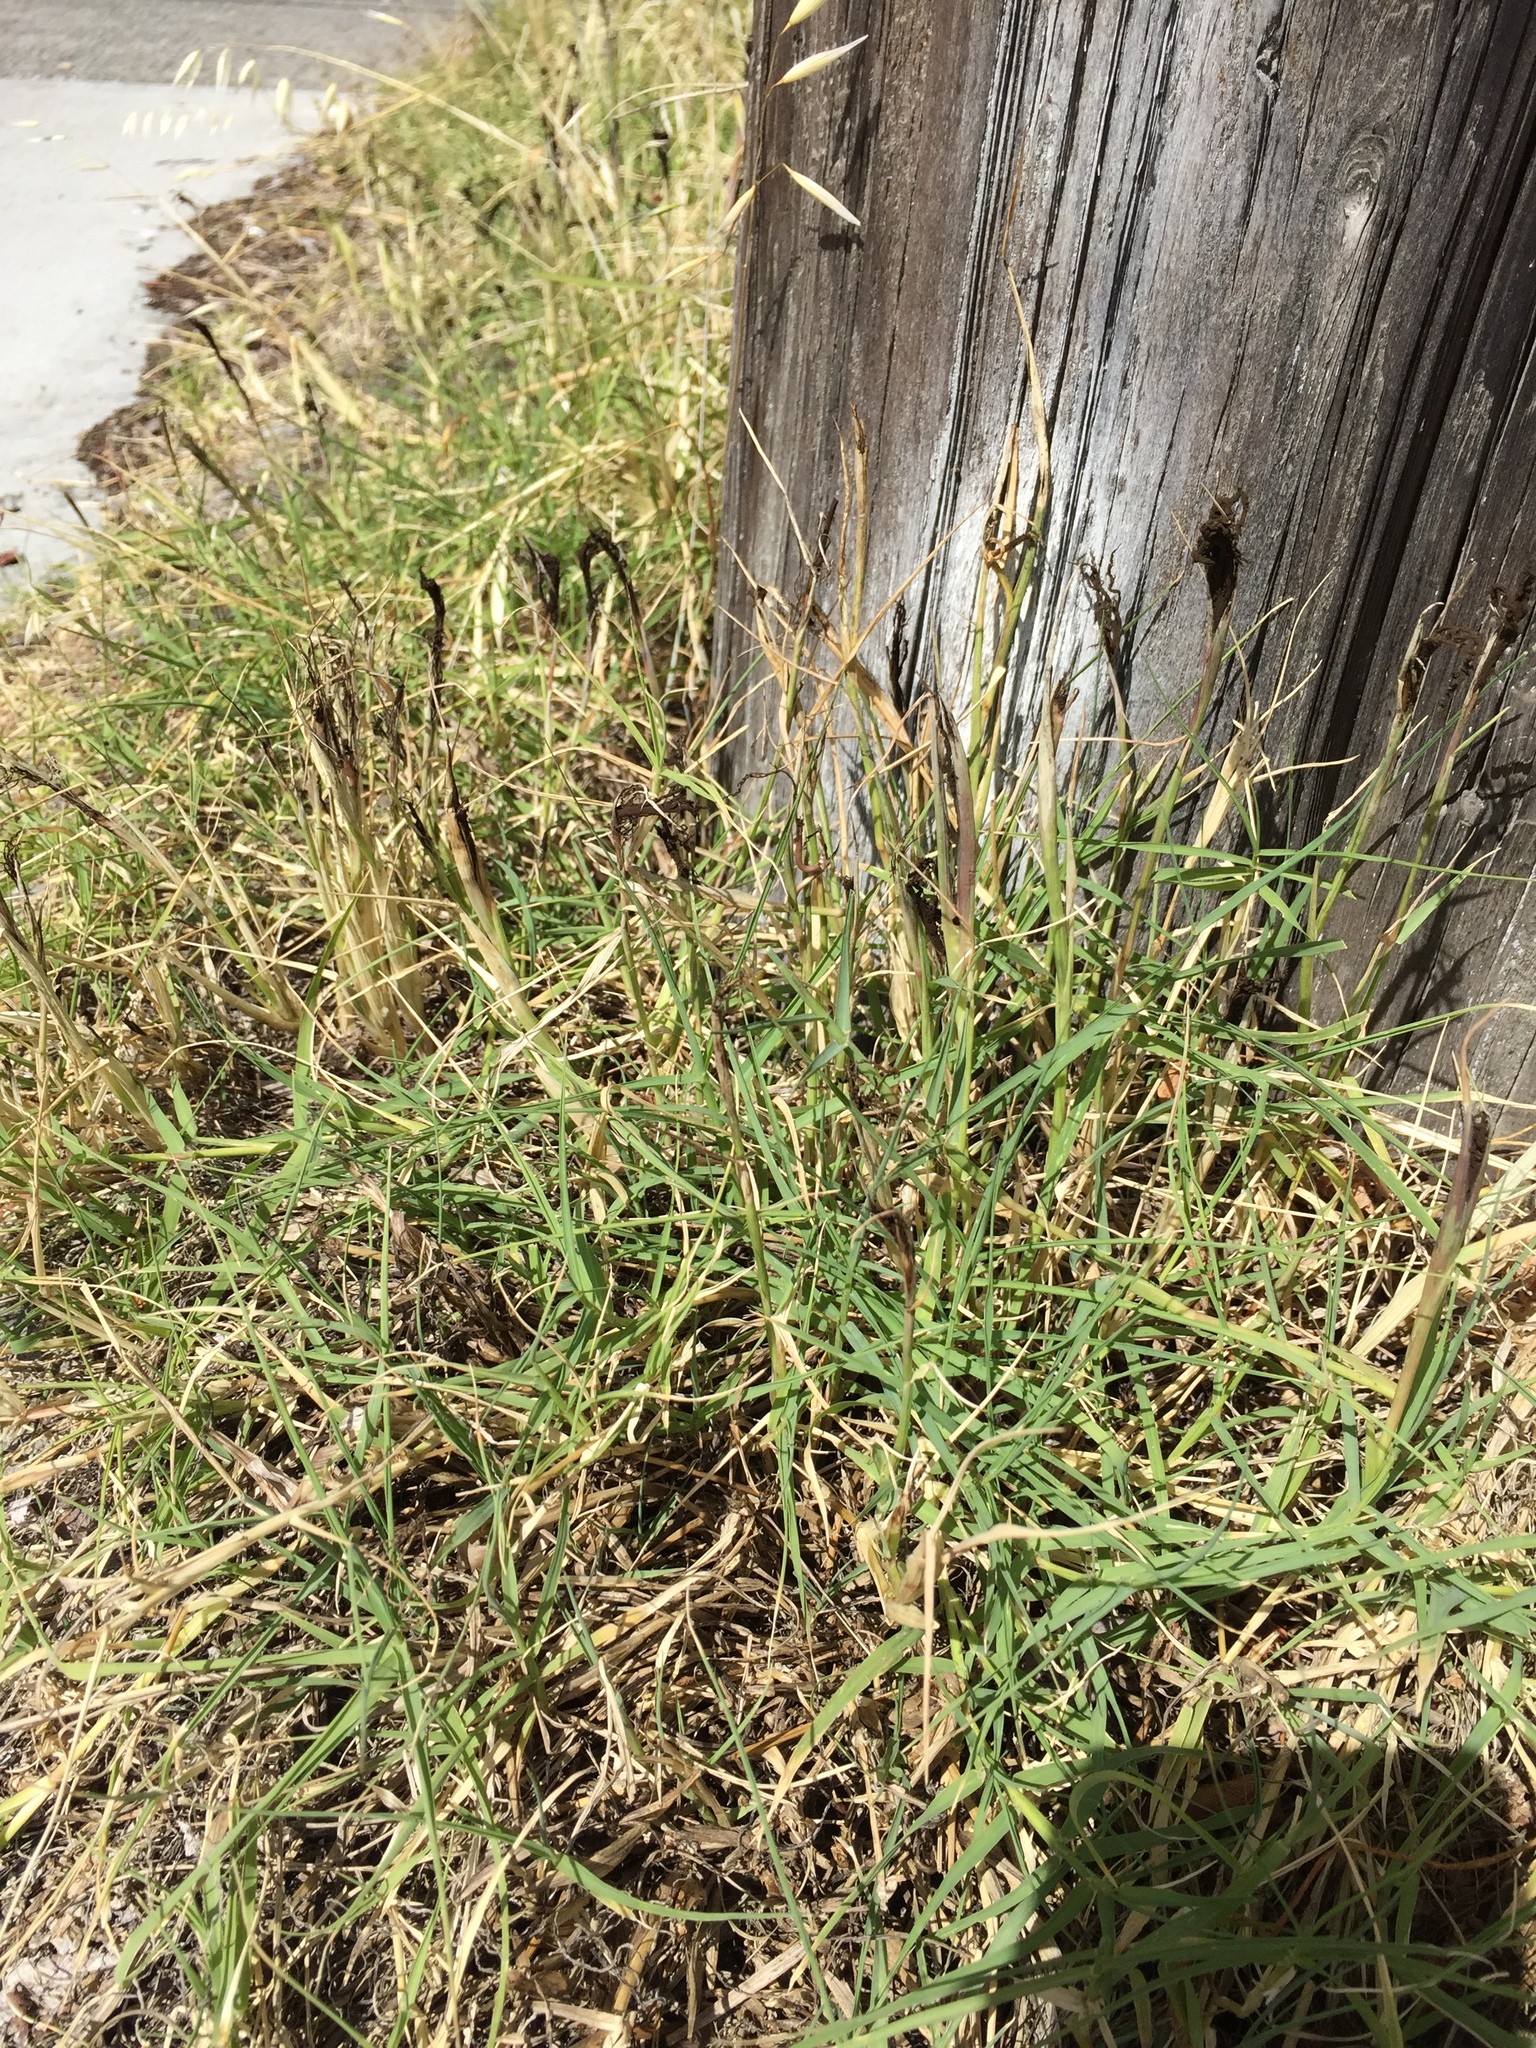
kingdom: Fungi
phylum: Basidiomycota
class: Ustilaginomycetes
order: Ustilaginales
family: Ustilaginaceae
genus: Ustilago
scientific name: Ustilago cynodontis
